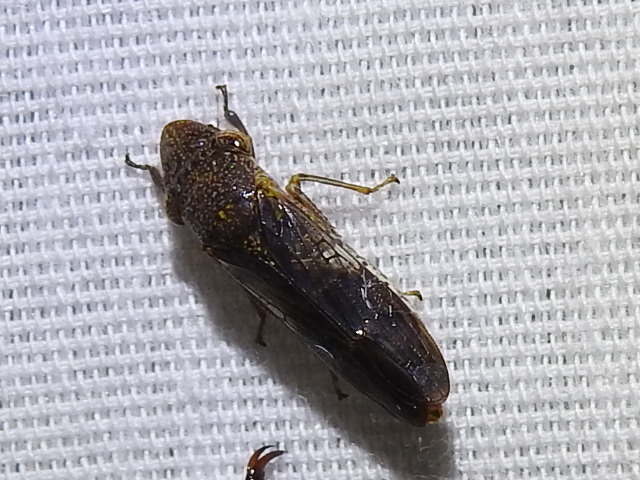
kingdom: Animalia
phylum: Arthropoda
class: Insecta
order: Hemiptera
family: Cicadellidae
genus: Homalodisca
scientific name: Homalodisca vitripennis
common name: Glassy-winged sharpshooter
